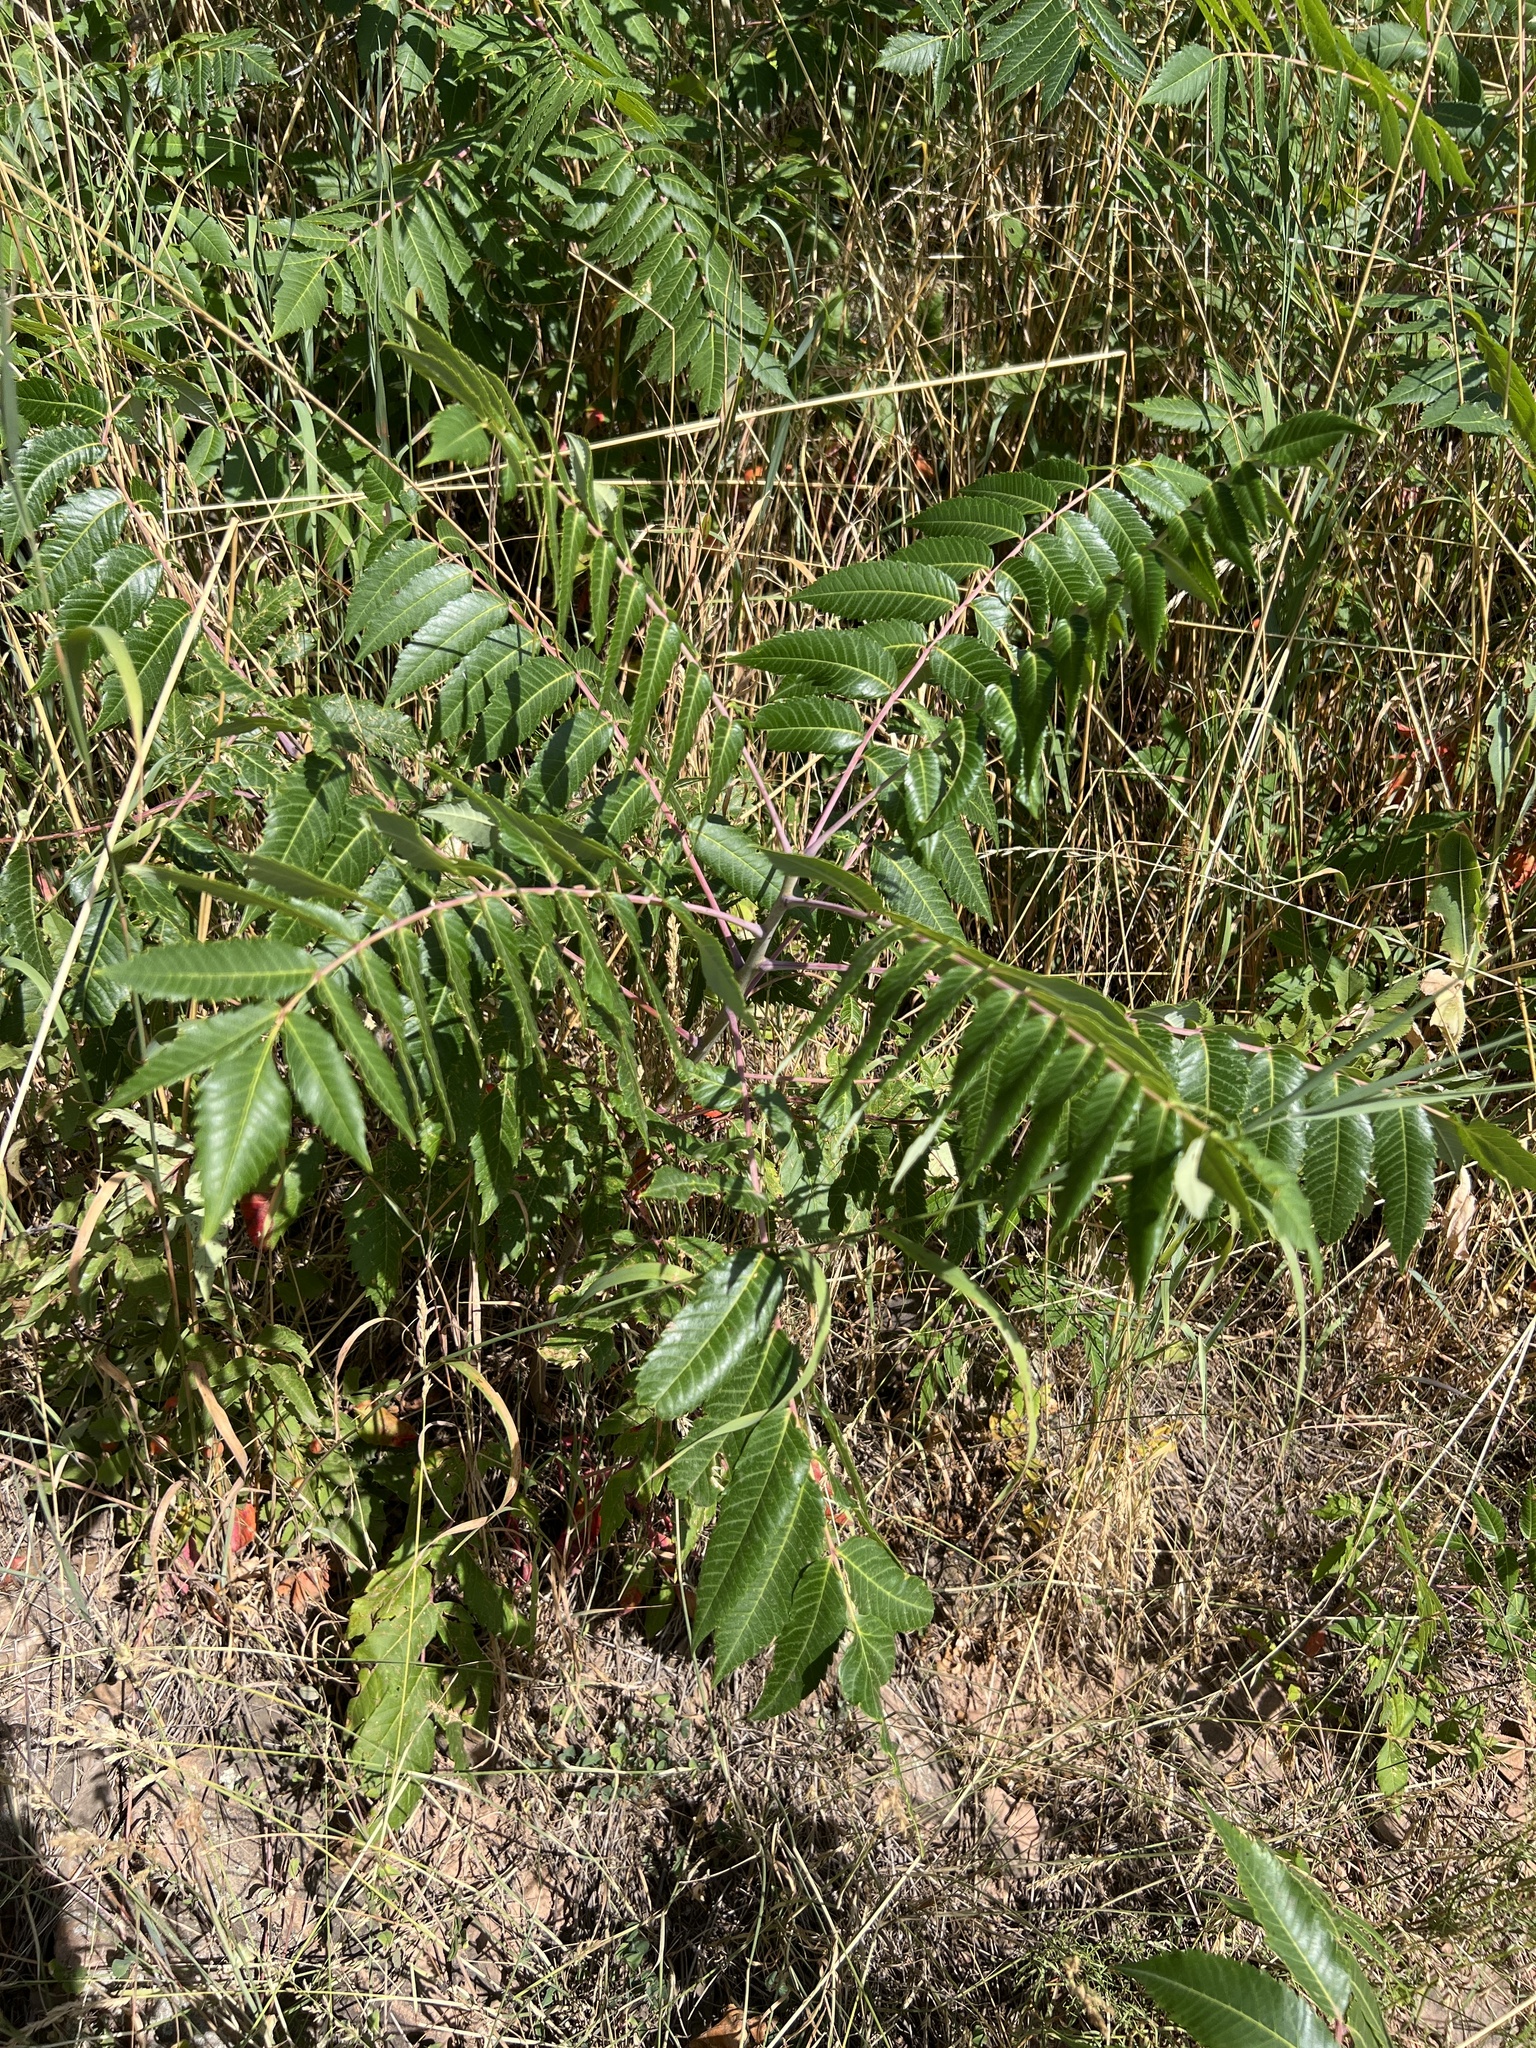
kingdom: Plantae
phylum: Tracheophyta
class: Magnoliopsida
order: Sapindales
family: Anacardiaceae
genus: Rhus
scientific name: Rhus glabra
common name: Scarlet sumac
